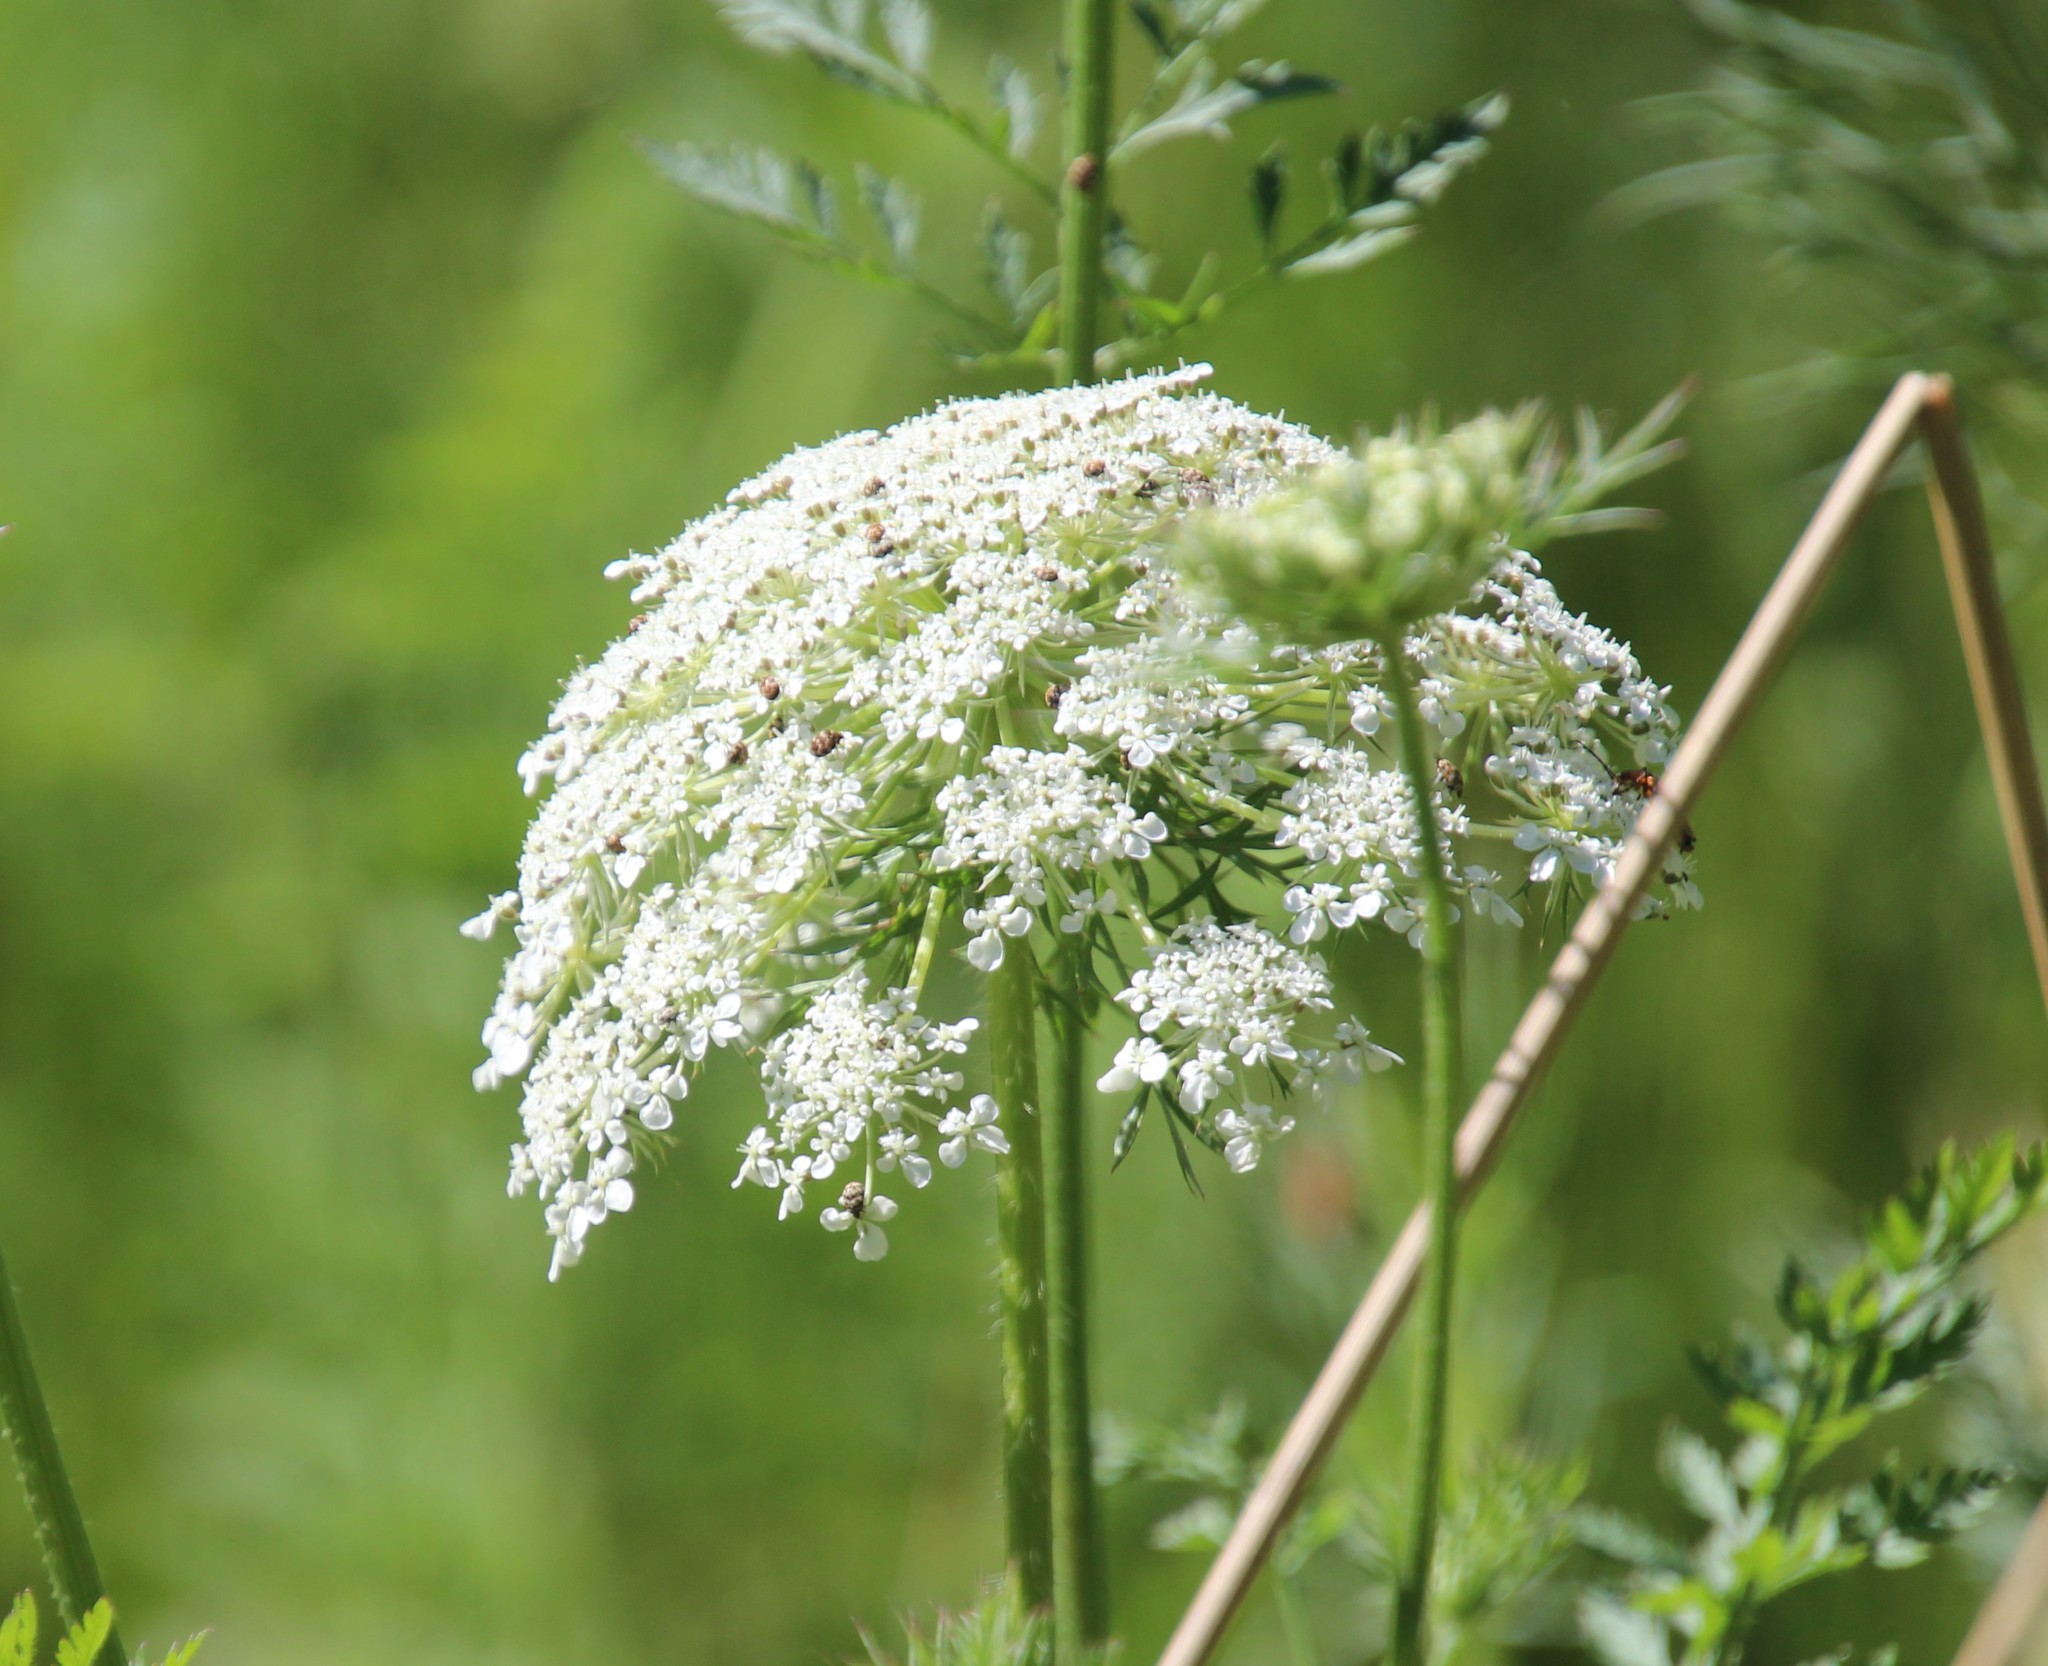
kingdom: Plantae
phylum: Tracheophyta
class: Magnoliopsida
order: Apiales
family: Apiaceae
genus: Daucus
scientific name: Daucus carota
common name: Wild carrot
